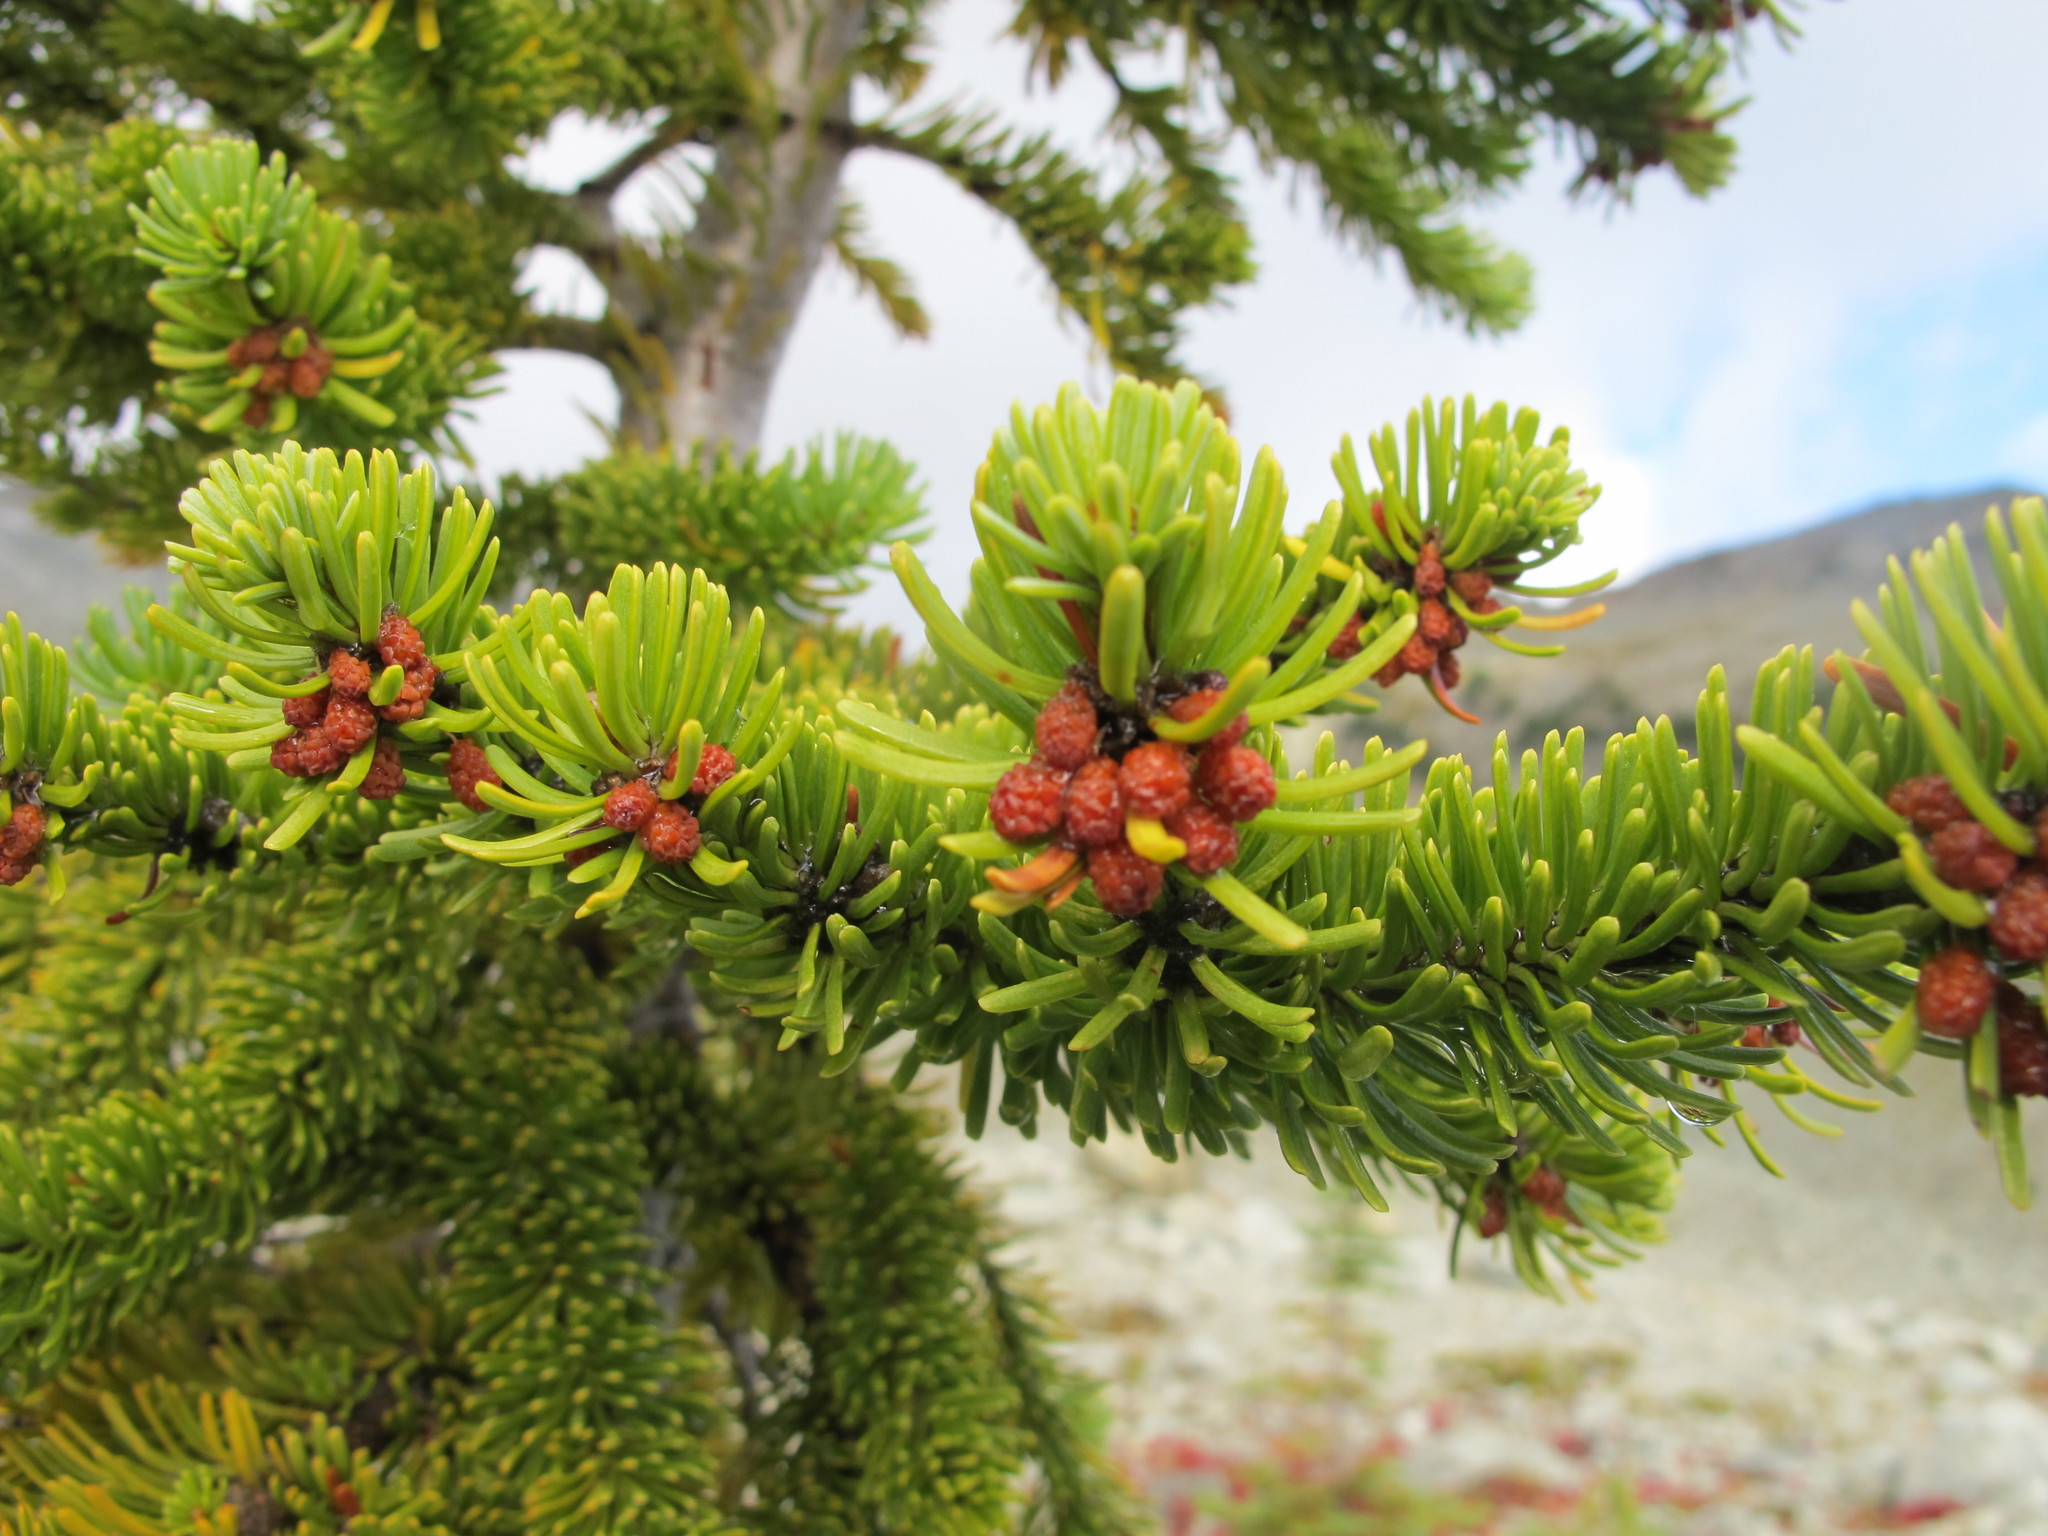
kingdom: Plantae
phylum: Tracheophyta
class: Pinopsida
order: Pinales
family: Pinaceae
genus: Abies
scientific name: Abies lasiocarpa
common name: Subalpine fir
